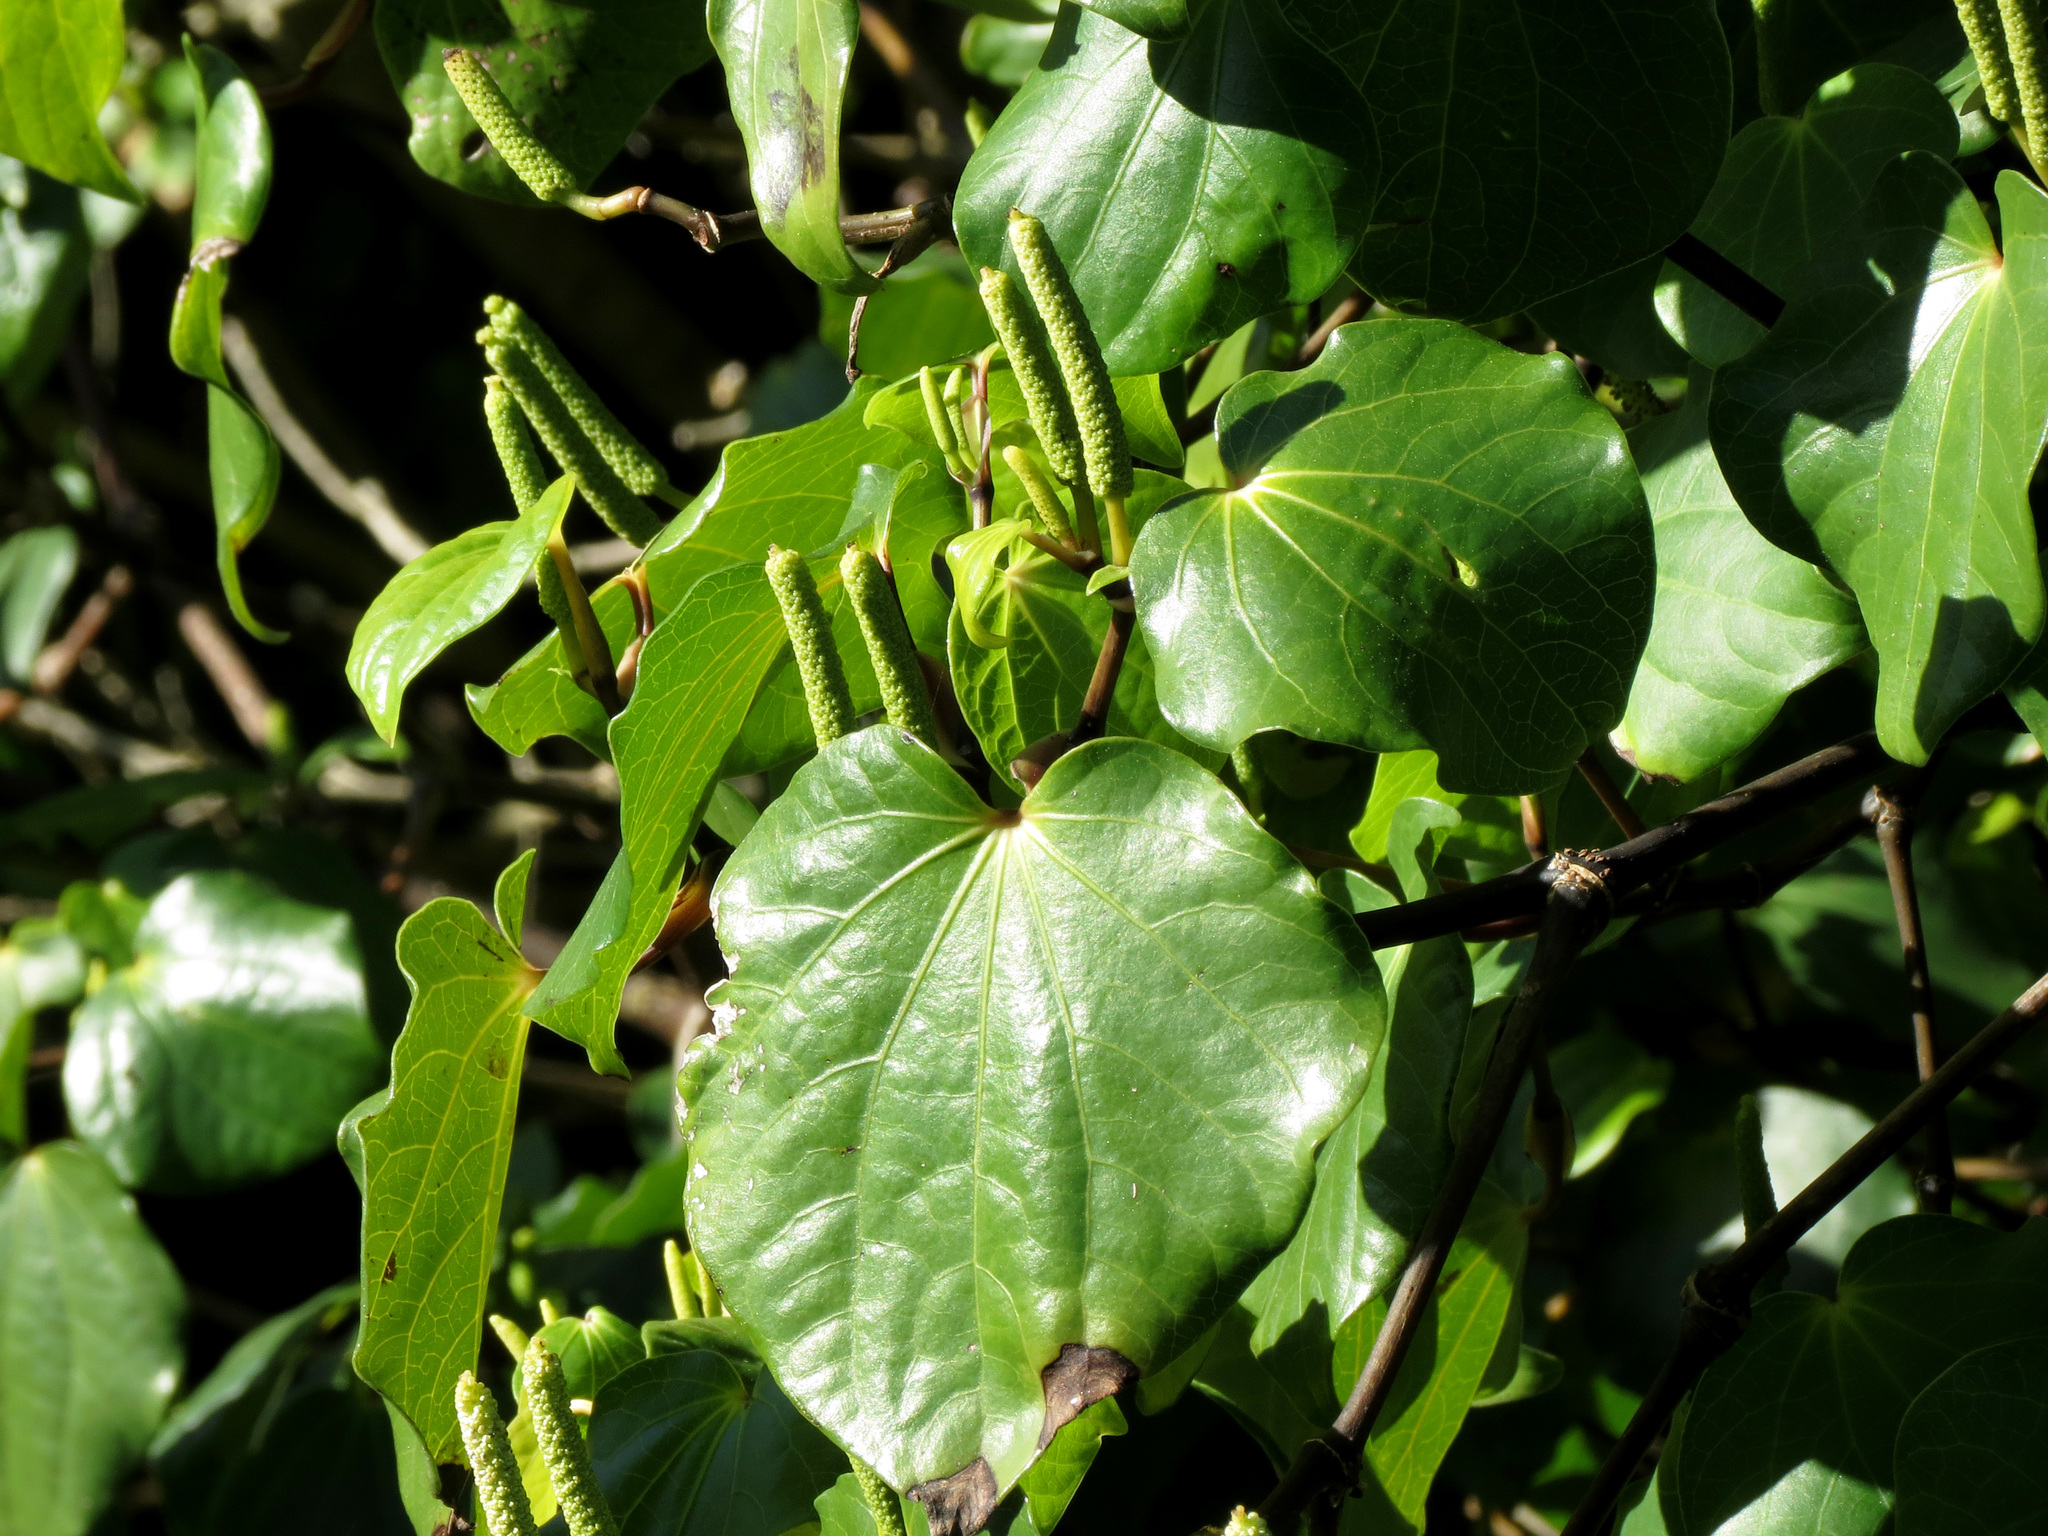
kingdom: Plantae
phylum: Tracheophyta
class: Magnoliopsida
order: Piperales
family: Piperaceae
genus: Macropiper
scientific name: Macropiper excelsum
